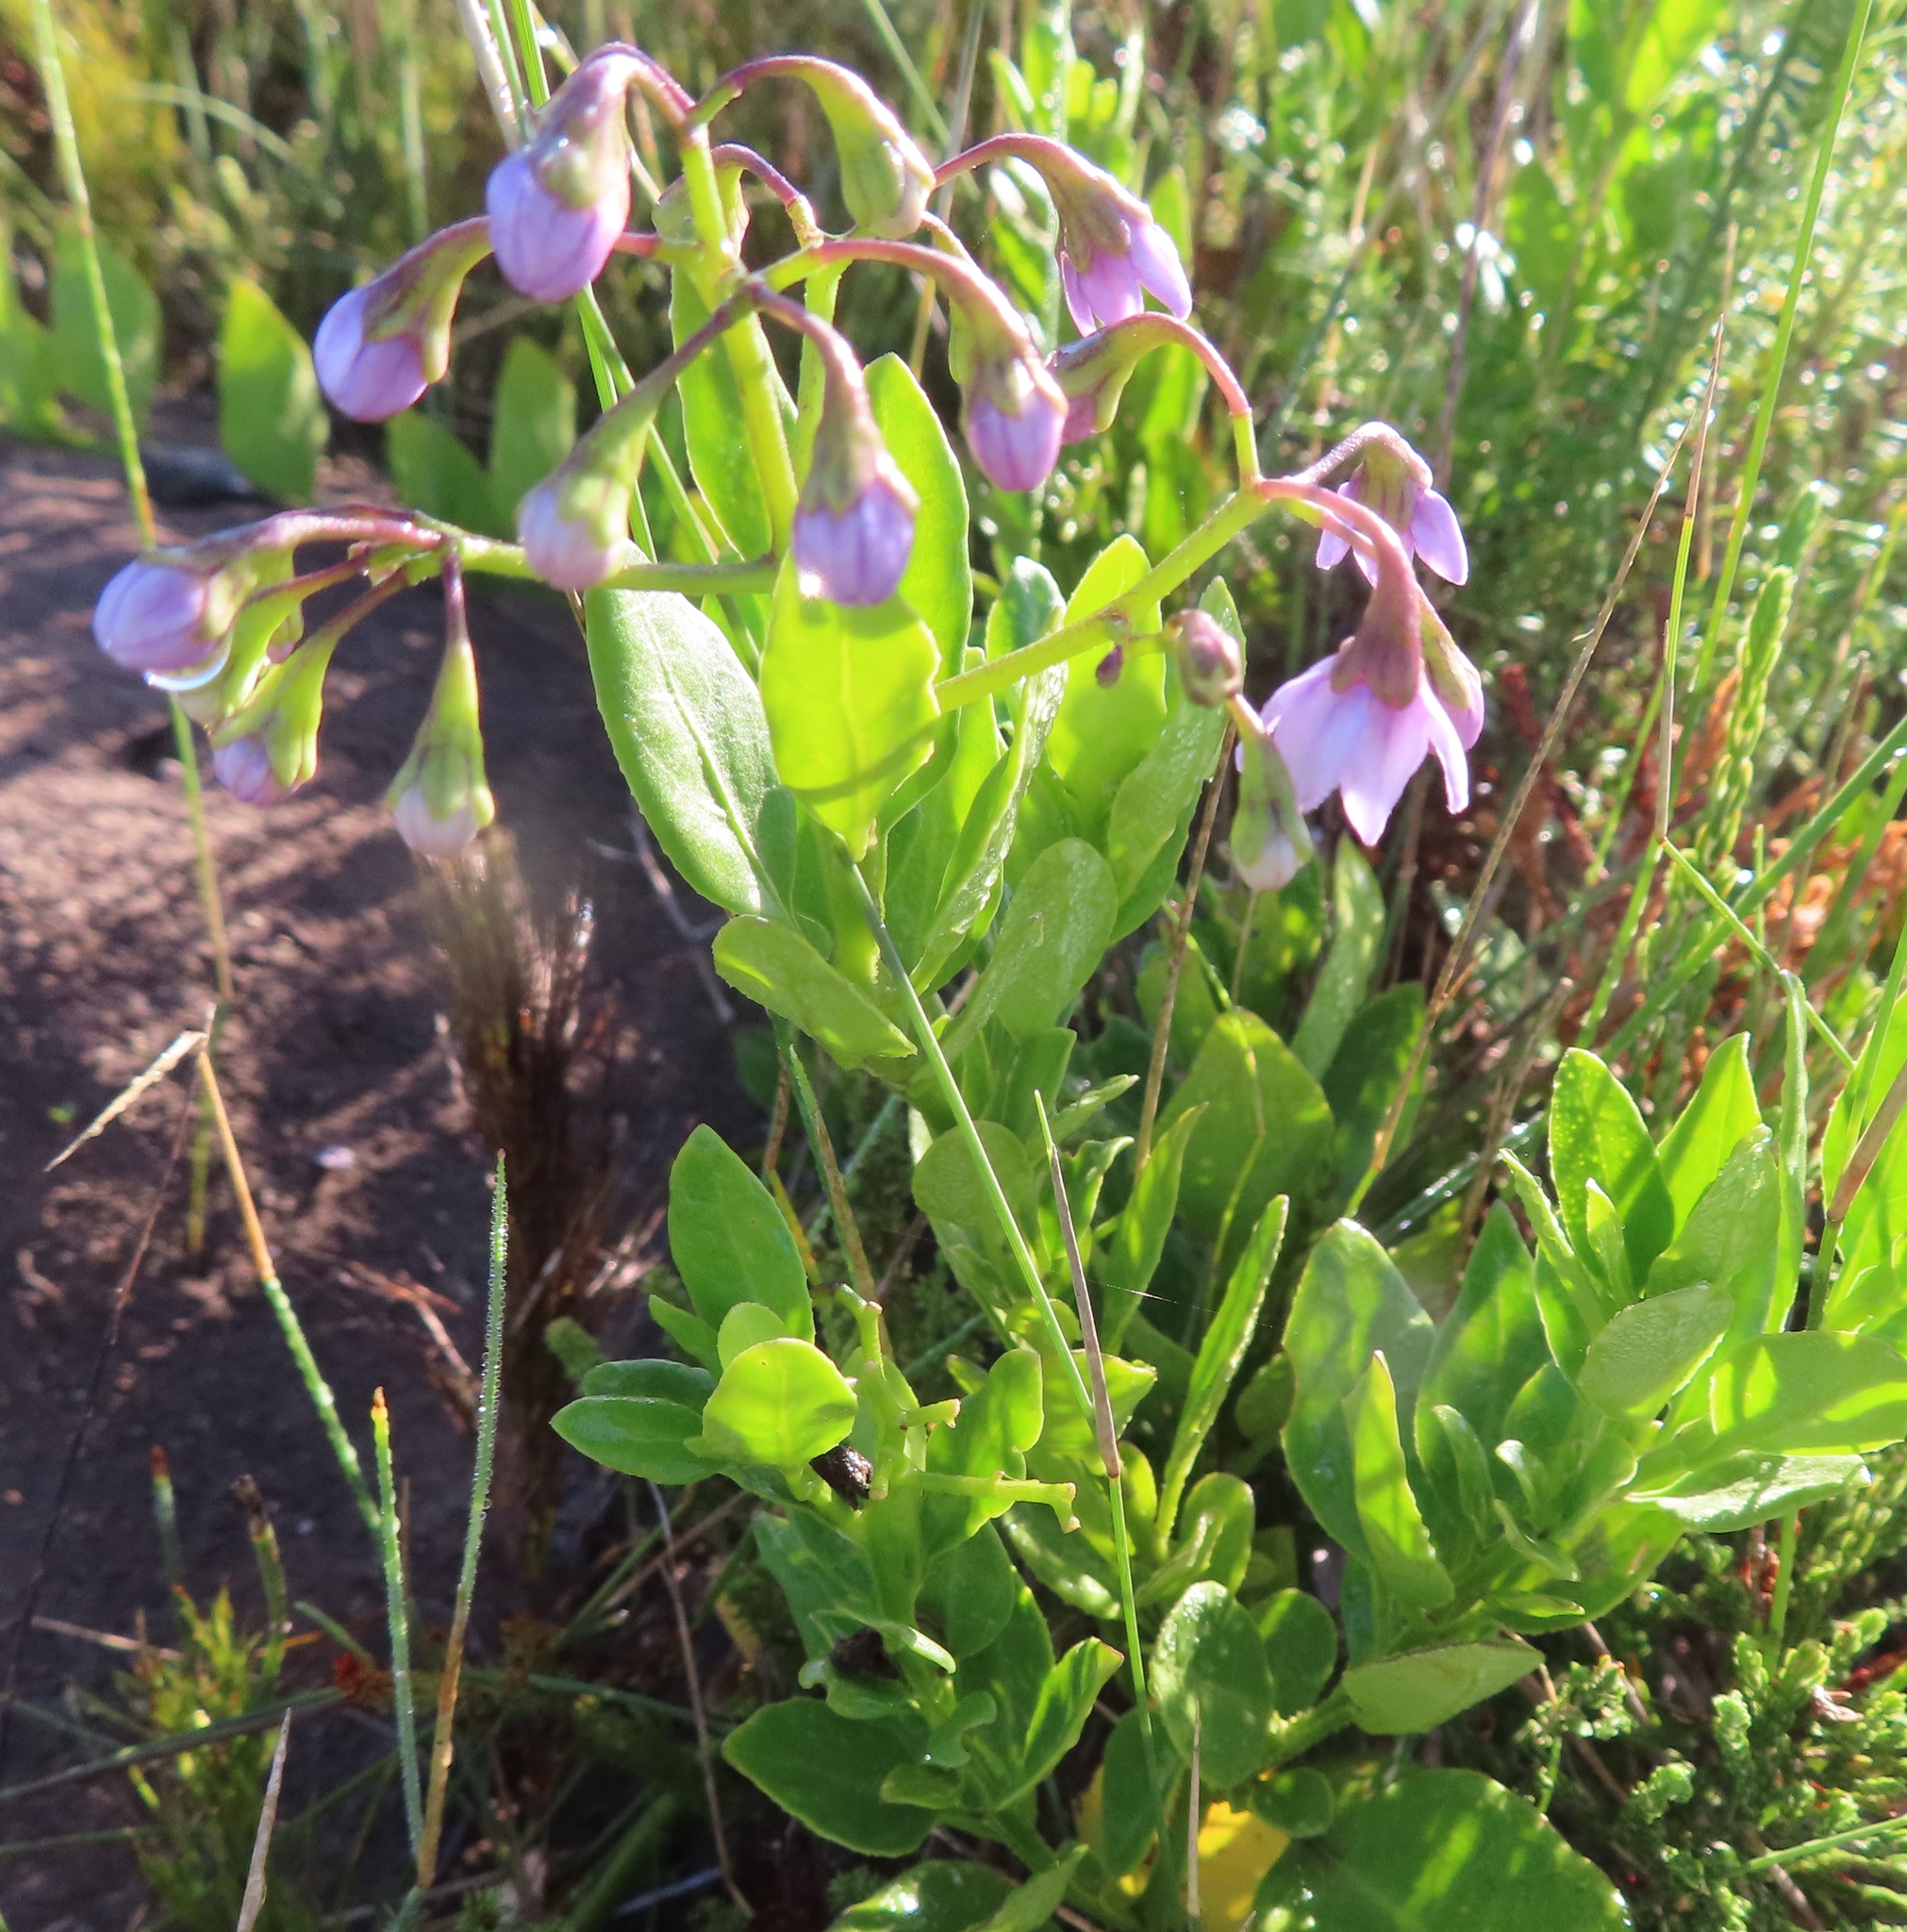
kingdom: Plantae
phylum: Tracheophyta
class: Magnoliopsida
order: Solanales
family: Solanaceae
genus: Solanum
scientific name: Solanum africanum
